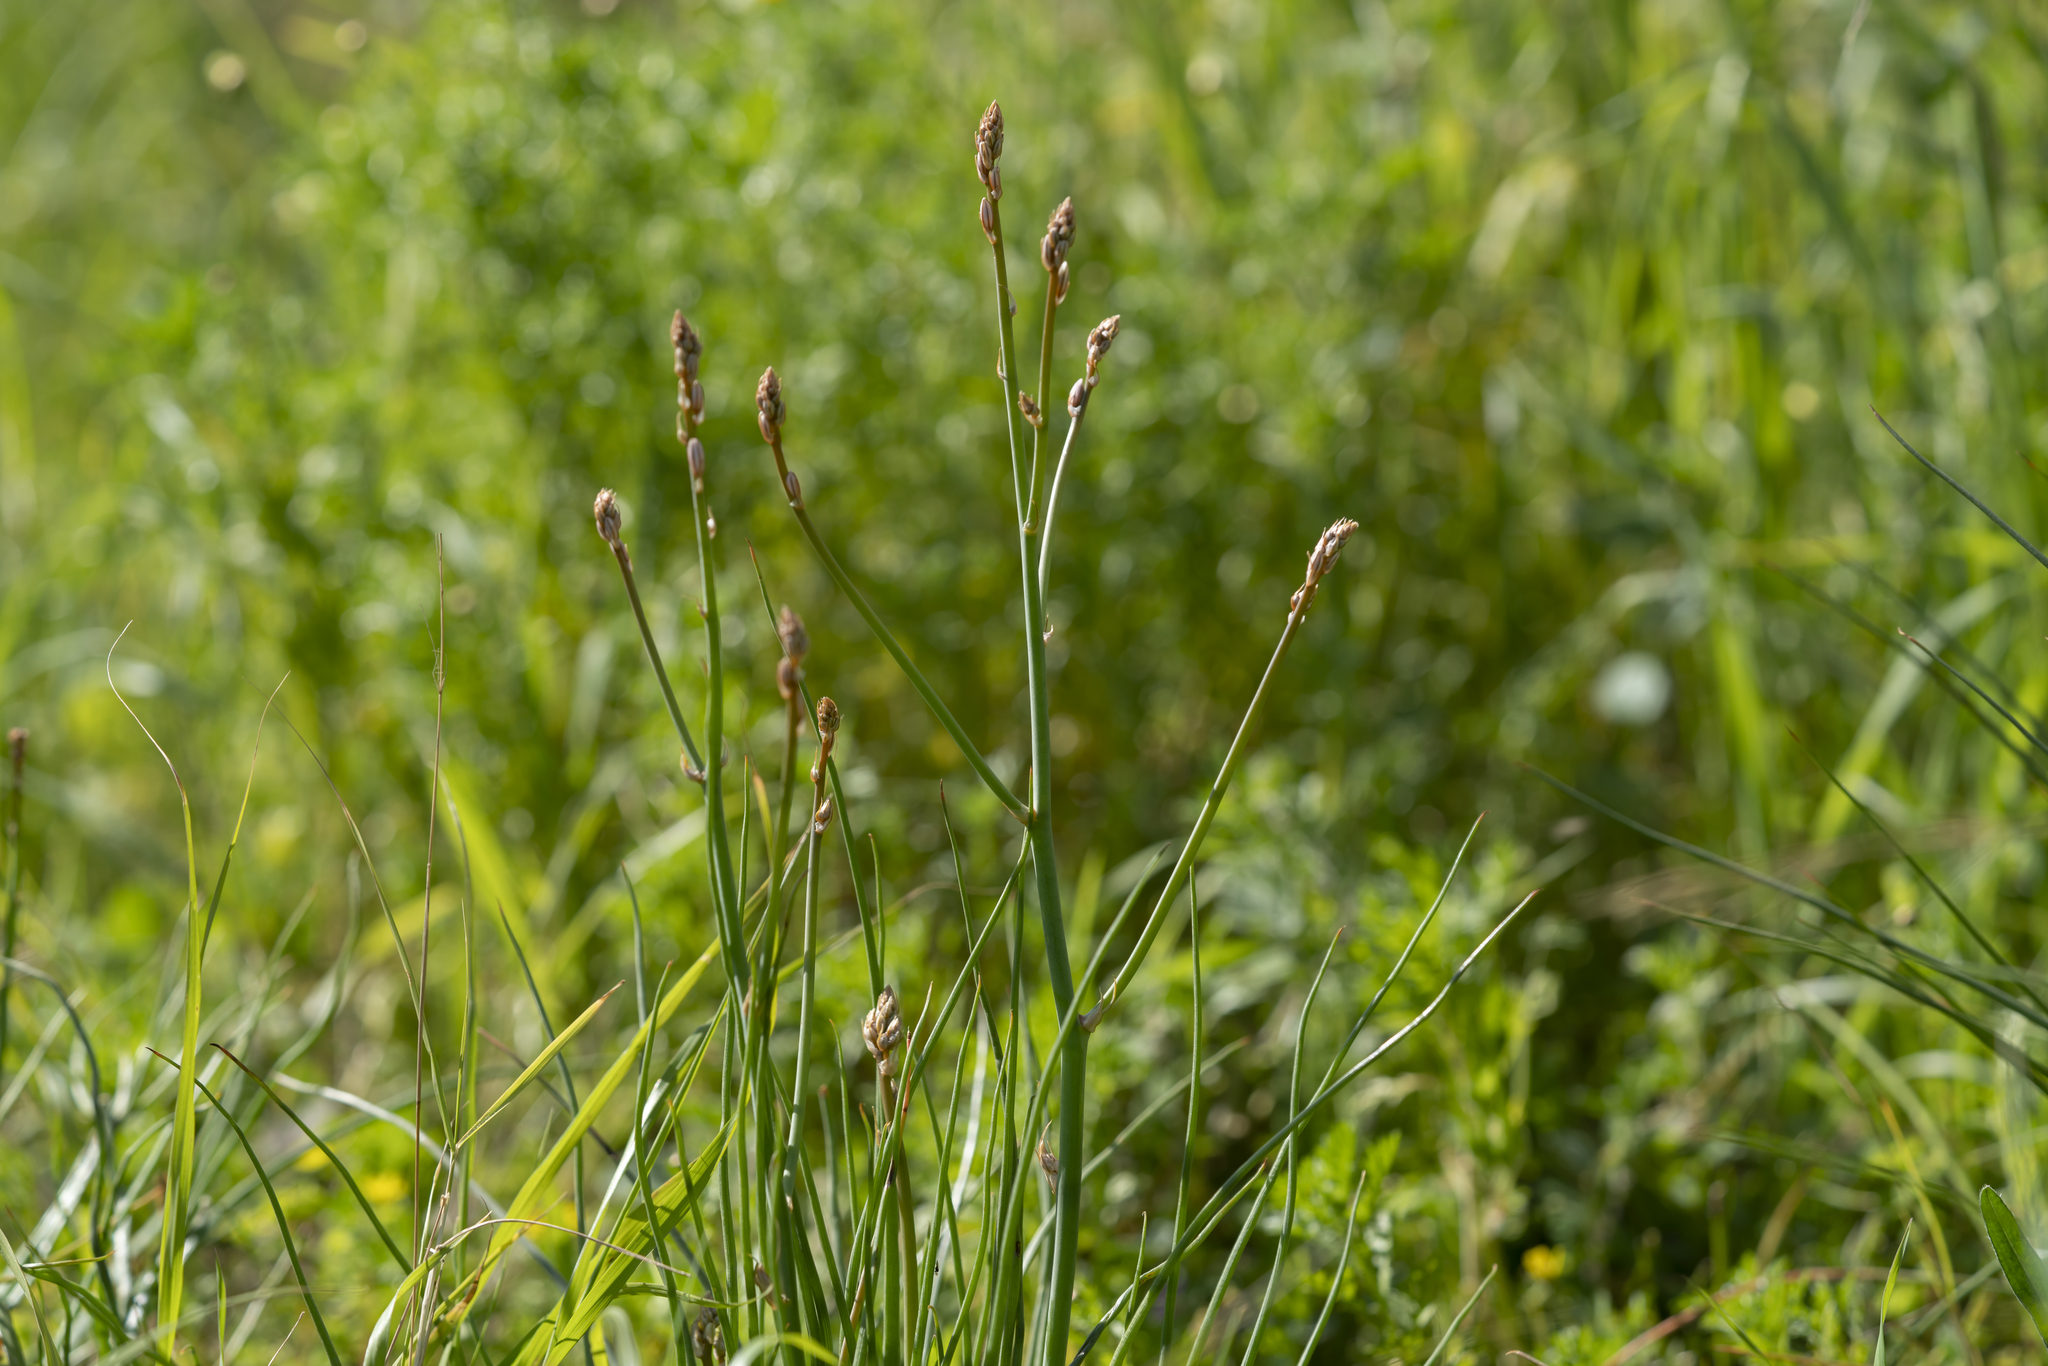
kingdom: Plantae
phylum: Tracheophyta
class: Liliopsida
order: Asparagales
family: Asphodelaceae
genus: Asphodelus
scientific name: Asphodelus fistulosus
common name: Onionweed
